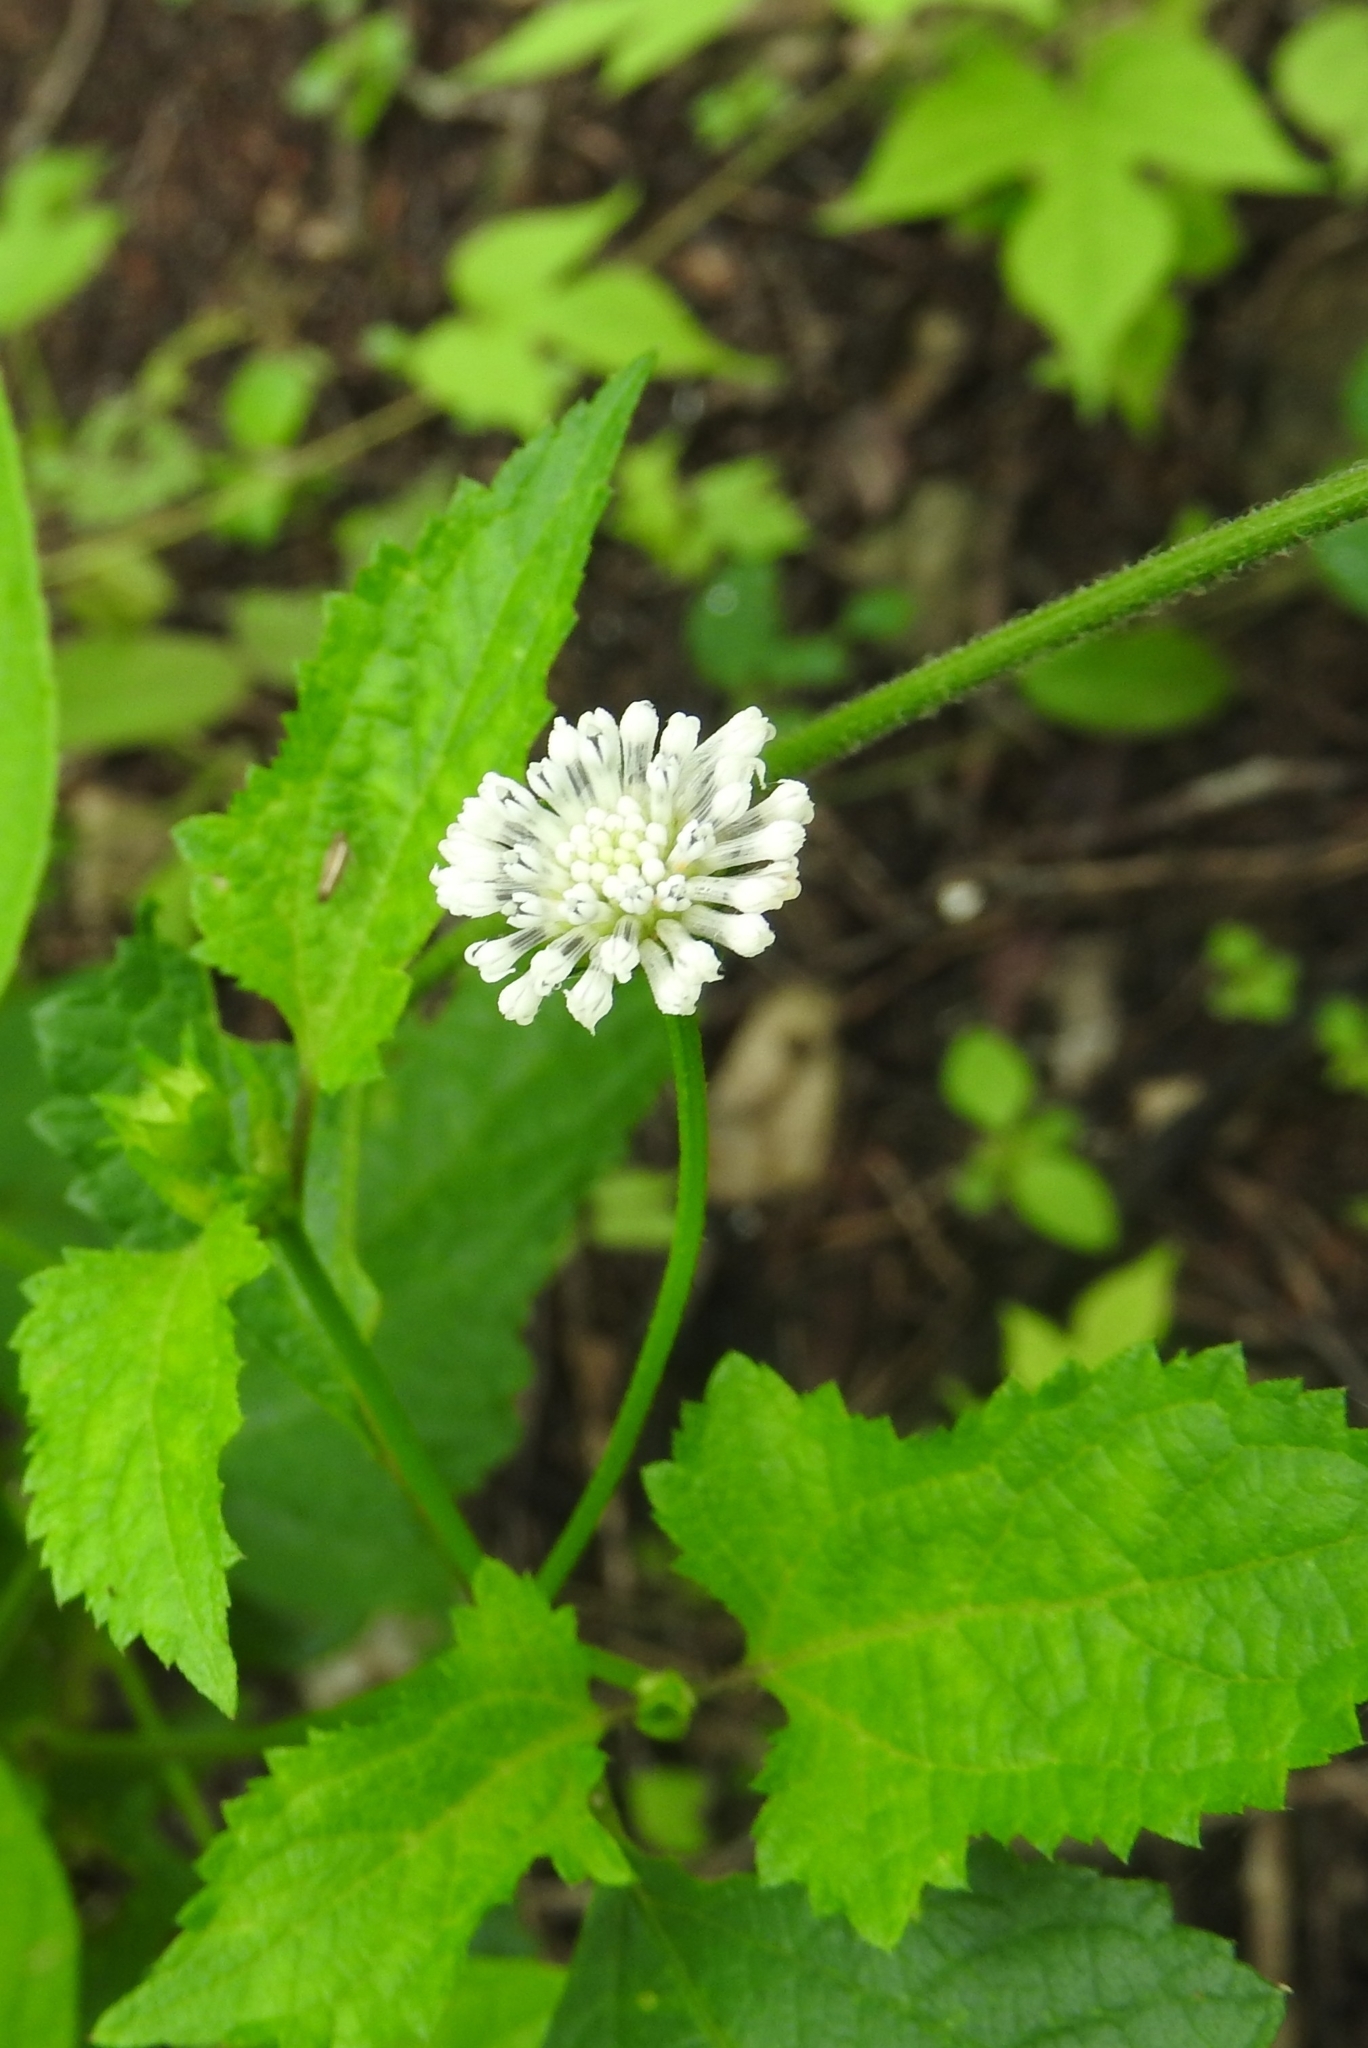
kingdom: Plantae
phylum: Tracheophyta
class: Magnoliopsida
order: Asterales
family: Asteraceae
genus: Melanthera
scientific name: Melanthera nivea
